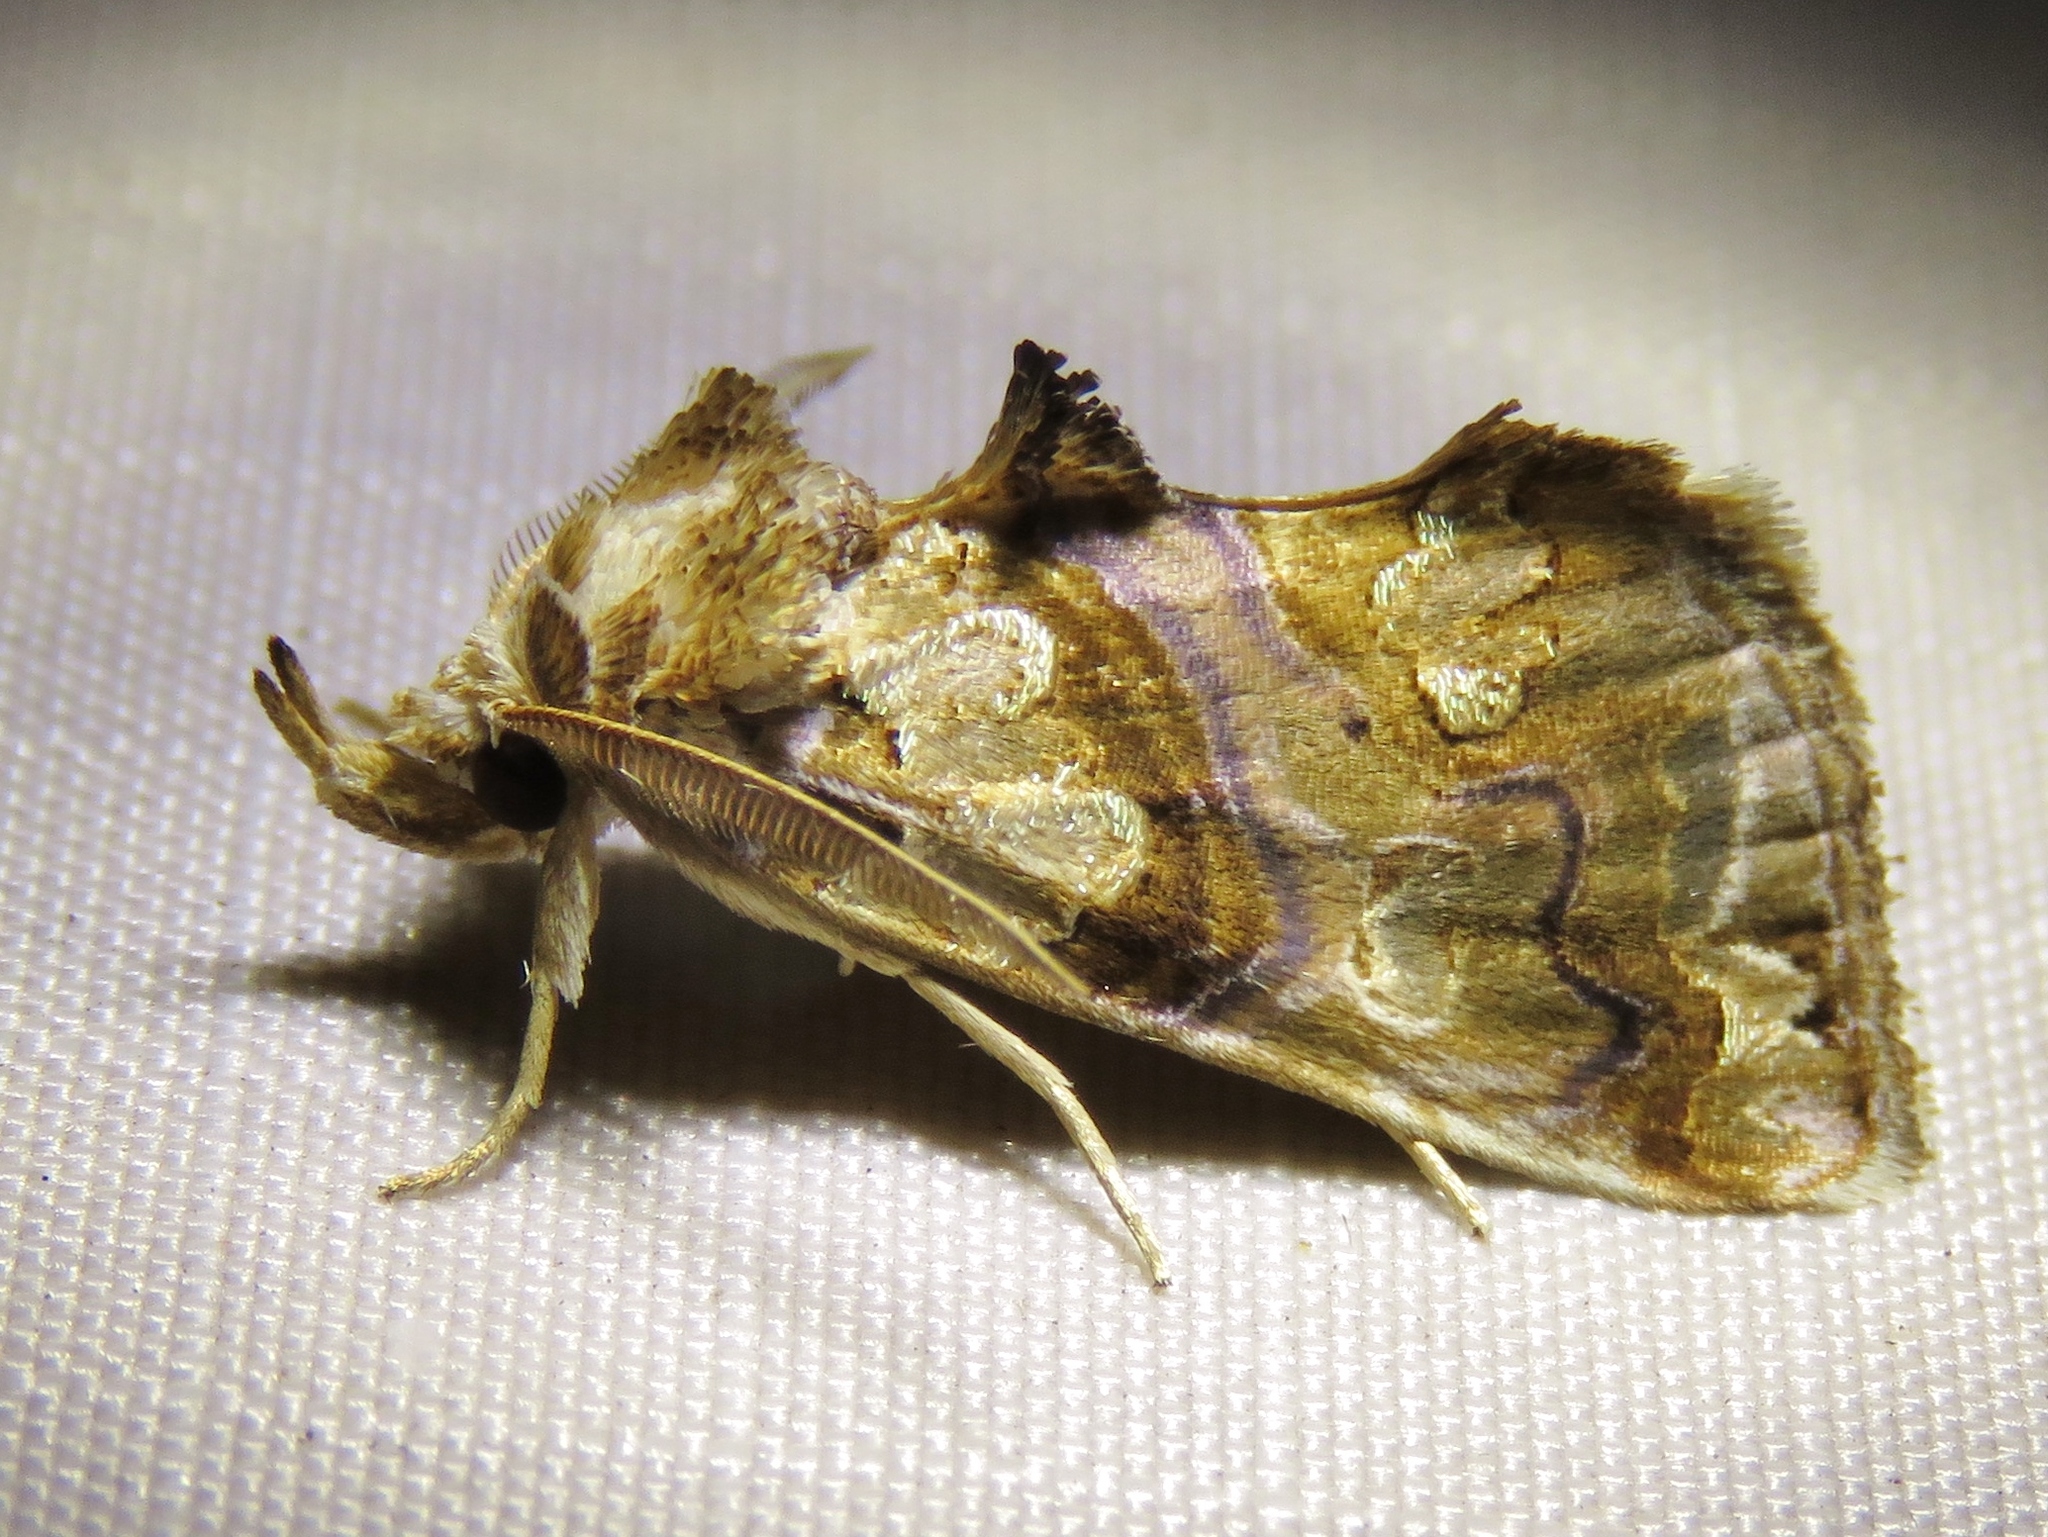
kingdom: Animalia
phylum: Arthropoda
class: Insecta
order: Lepidoptera
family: Erebidae
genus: Plusiodonta
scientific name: Plusiodonta compressipalpis
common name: Moonseed moth
